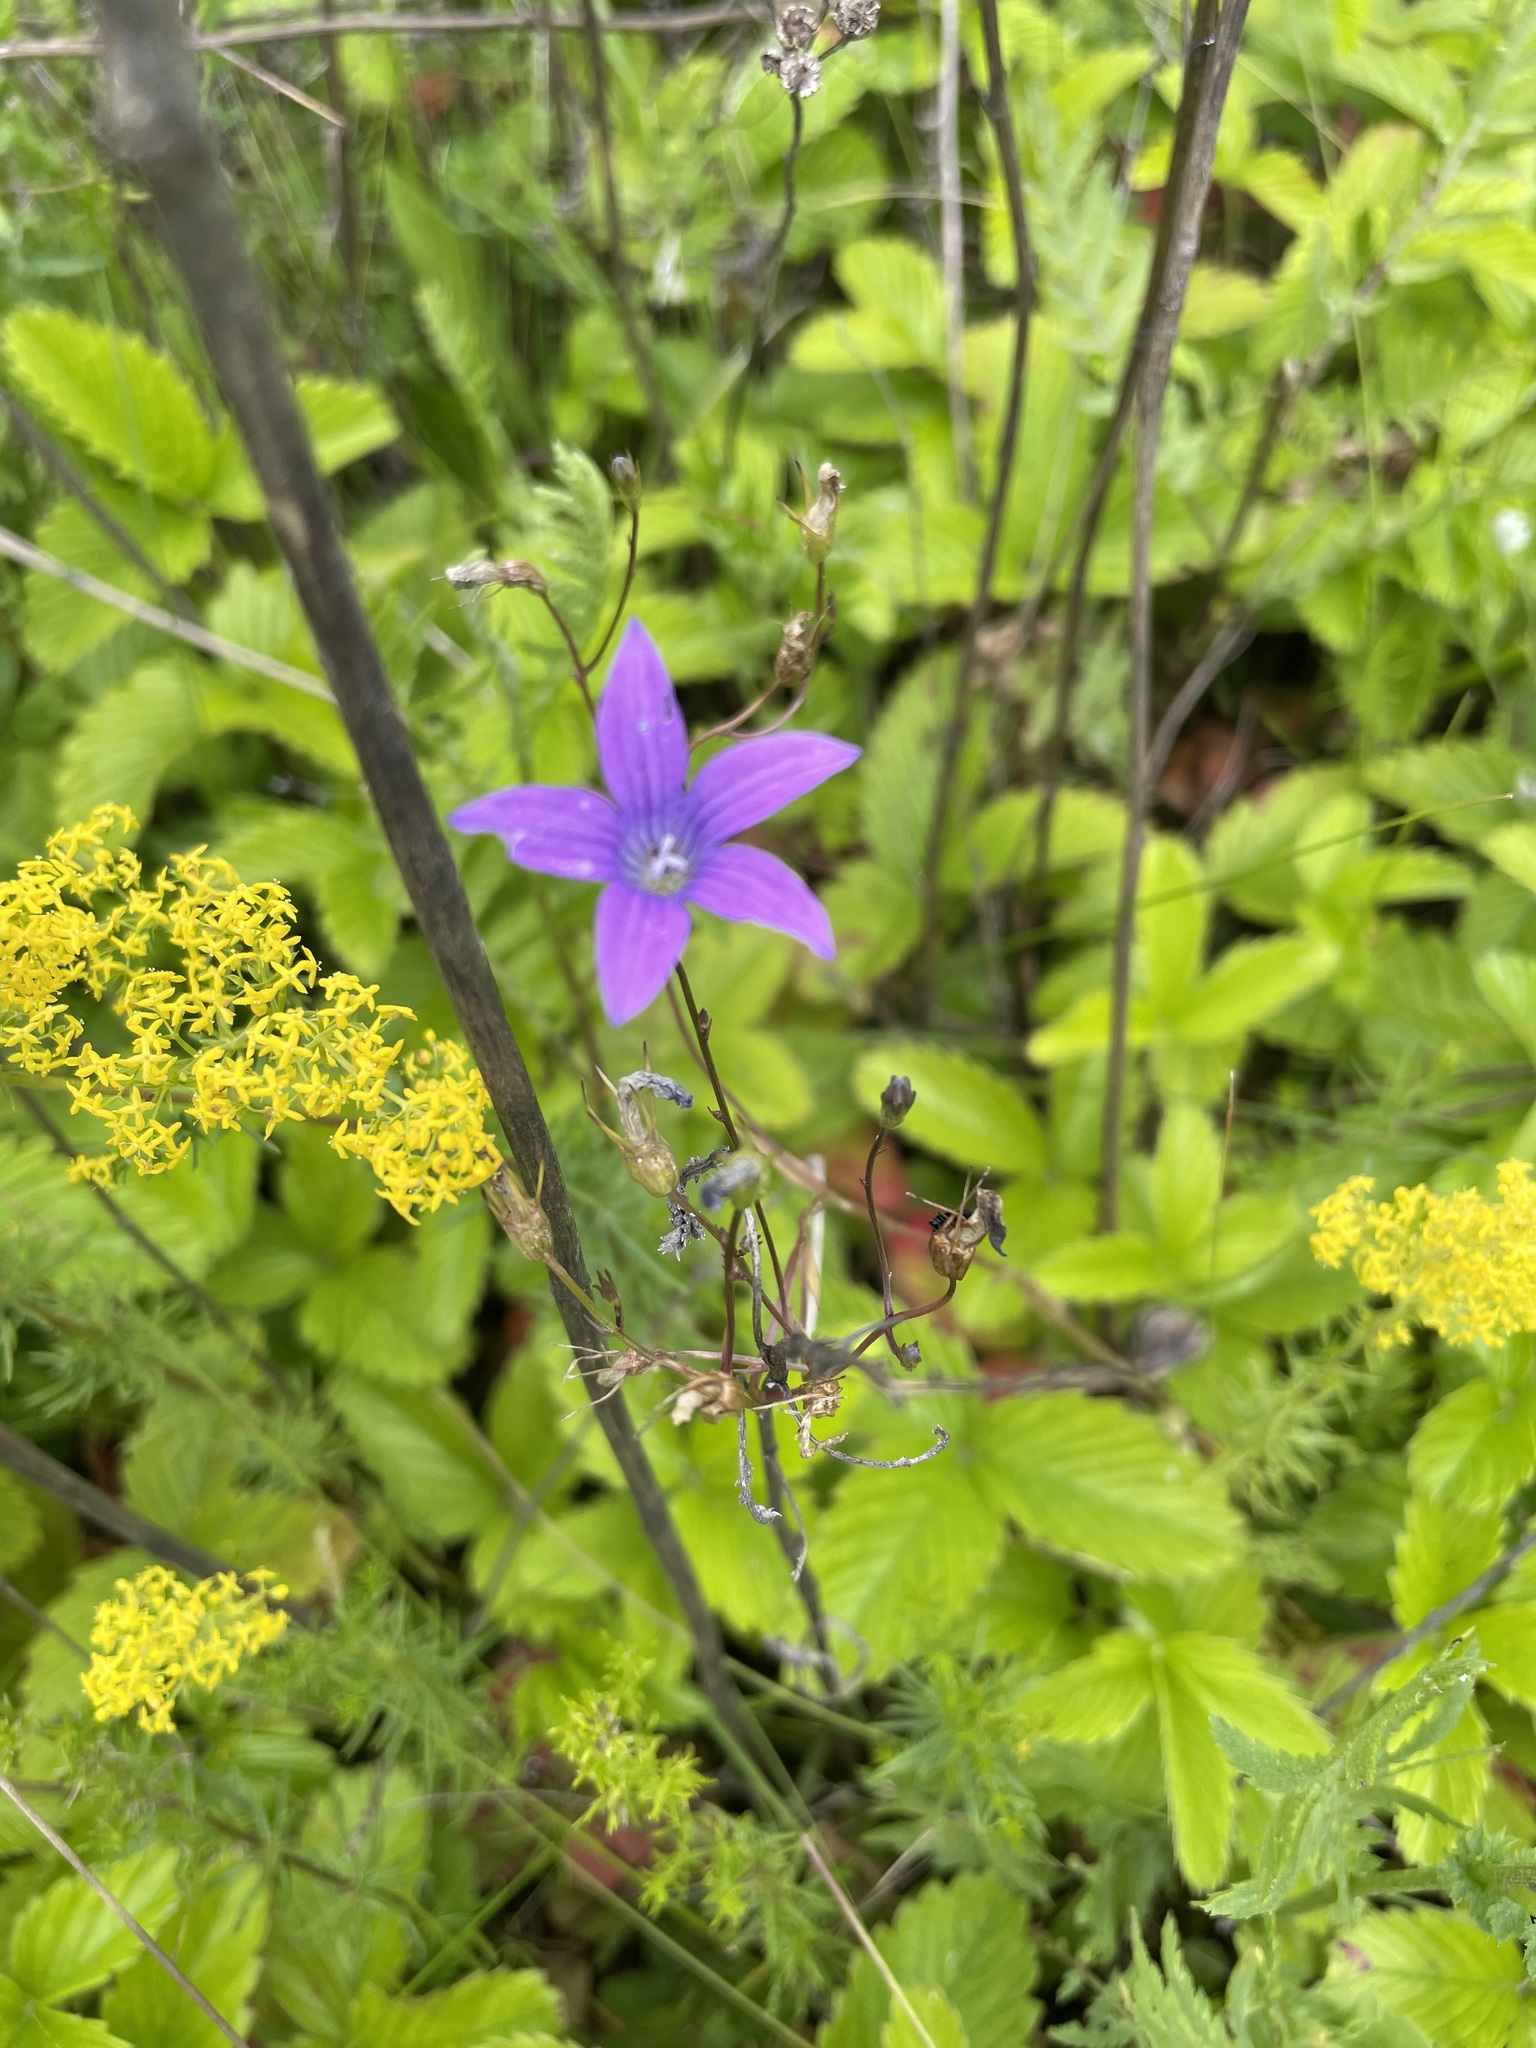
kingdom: Plantae
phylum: Tracheophyta
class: Magnoliopsida
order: Asterales
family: Campanulaceae
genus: Campanula
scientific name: Campanula patula
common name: Spreading bellflower
